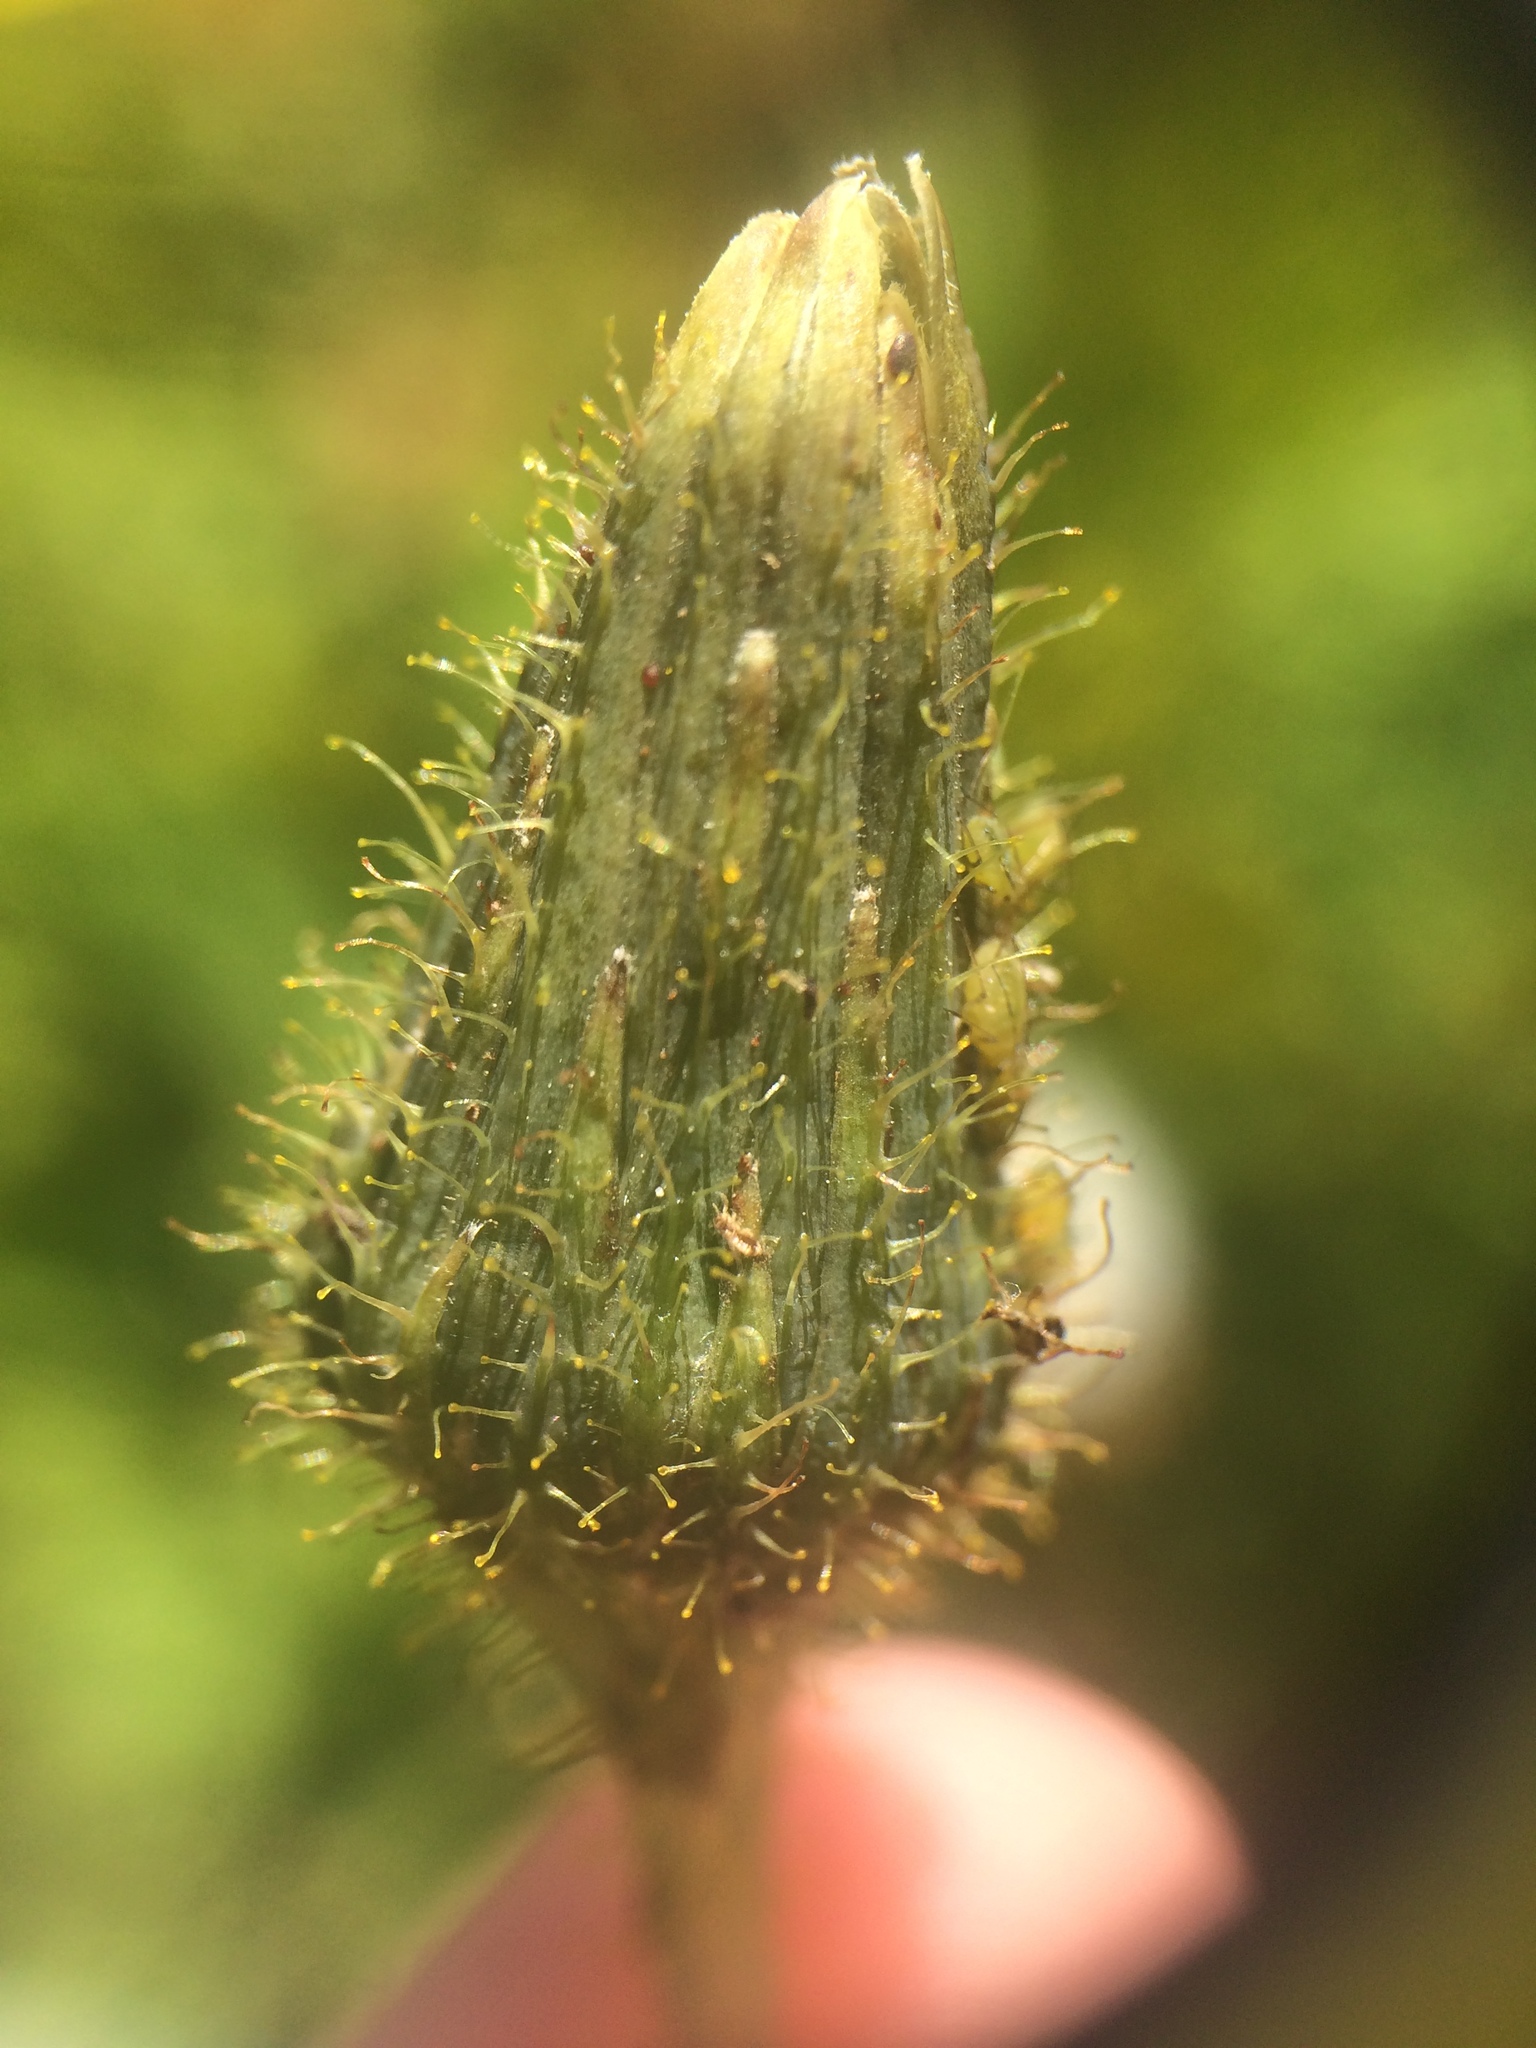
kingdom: Plantae
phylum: Tracheophyta
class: Magnoliopsida
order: Asterales
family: Asteraceae
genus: Sonchus
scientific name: Sonchus arvensis
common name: Perennial sow-thistle
